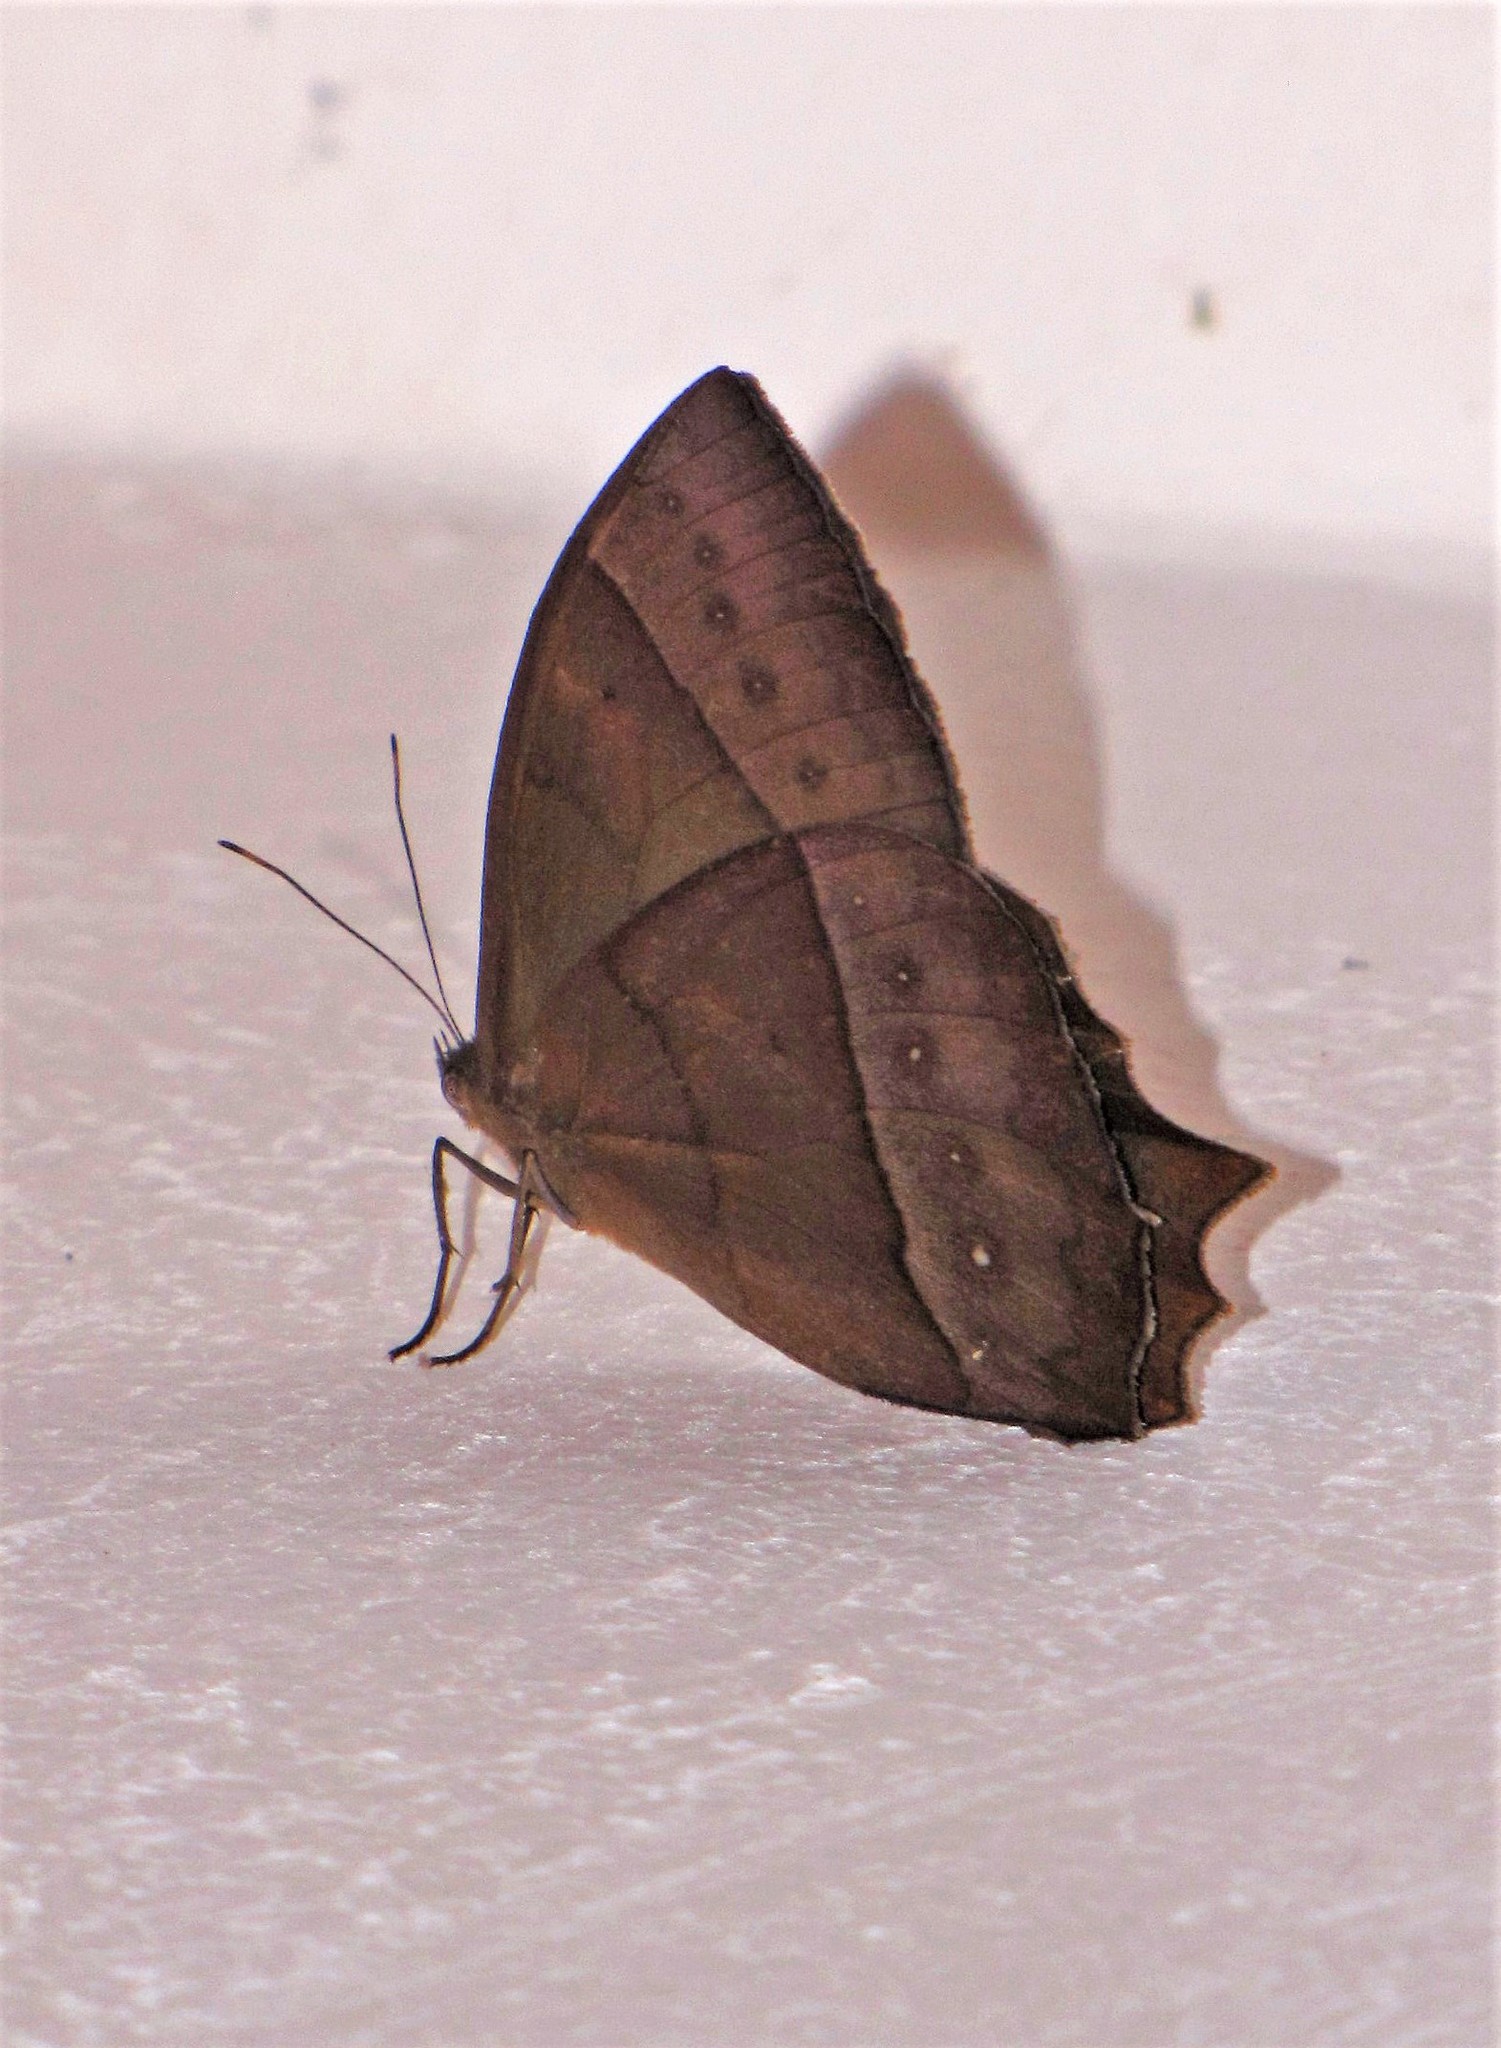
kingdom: Animalia
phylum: Arthropoda
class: Insecta
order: Lepidoptera
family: Nymphalidae
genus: Taygetis
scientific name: Taygetis virgilia
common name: Stub-tailed satyr
